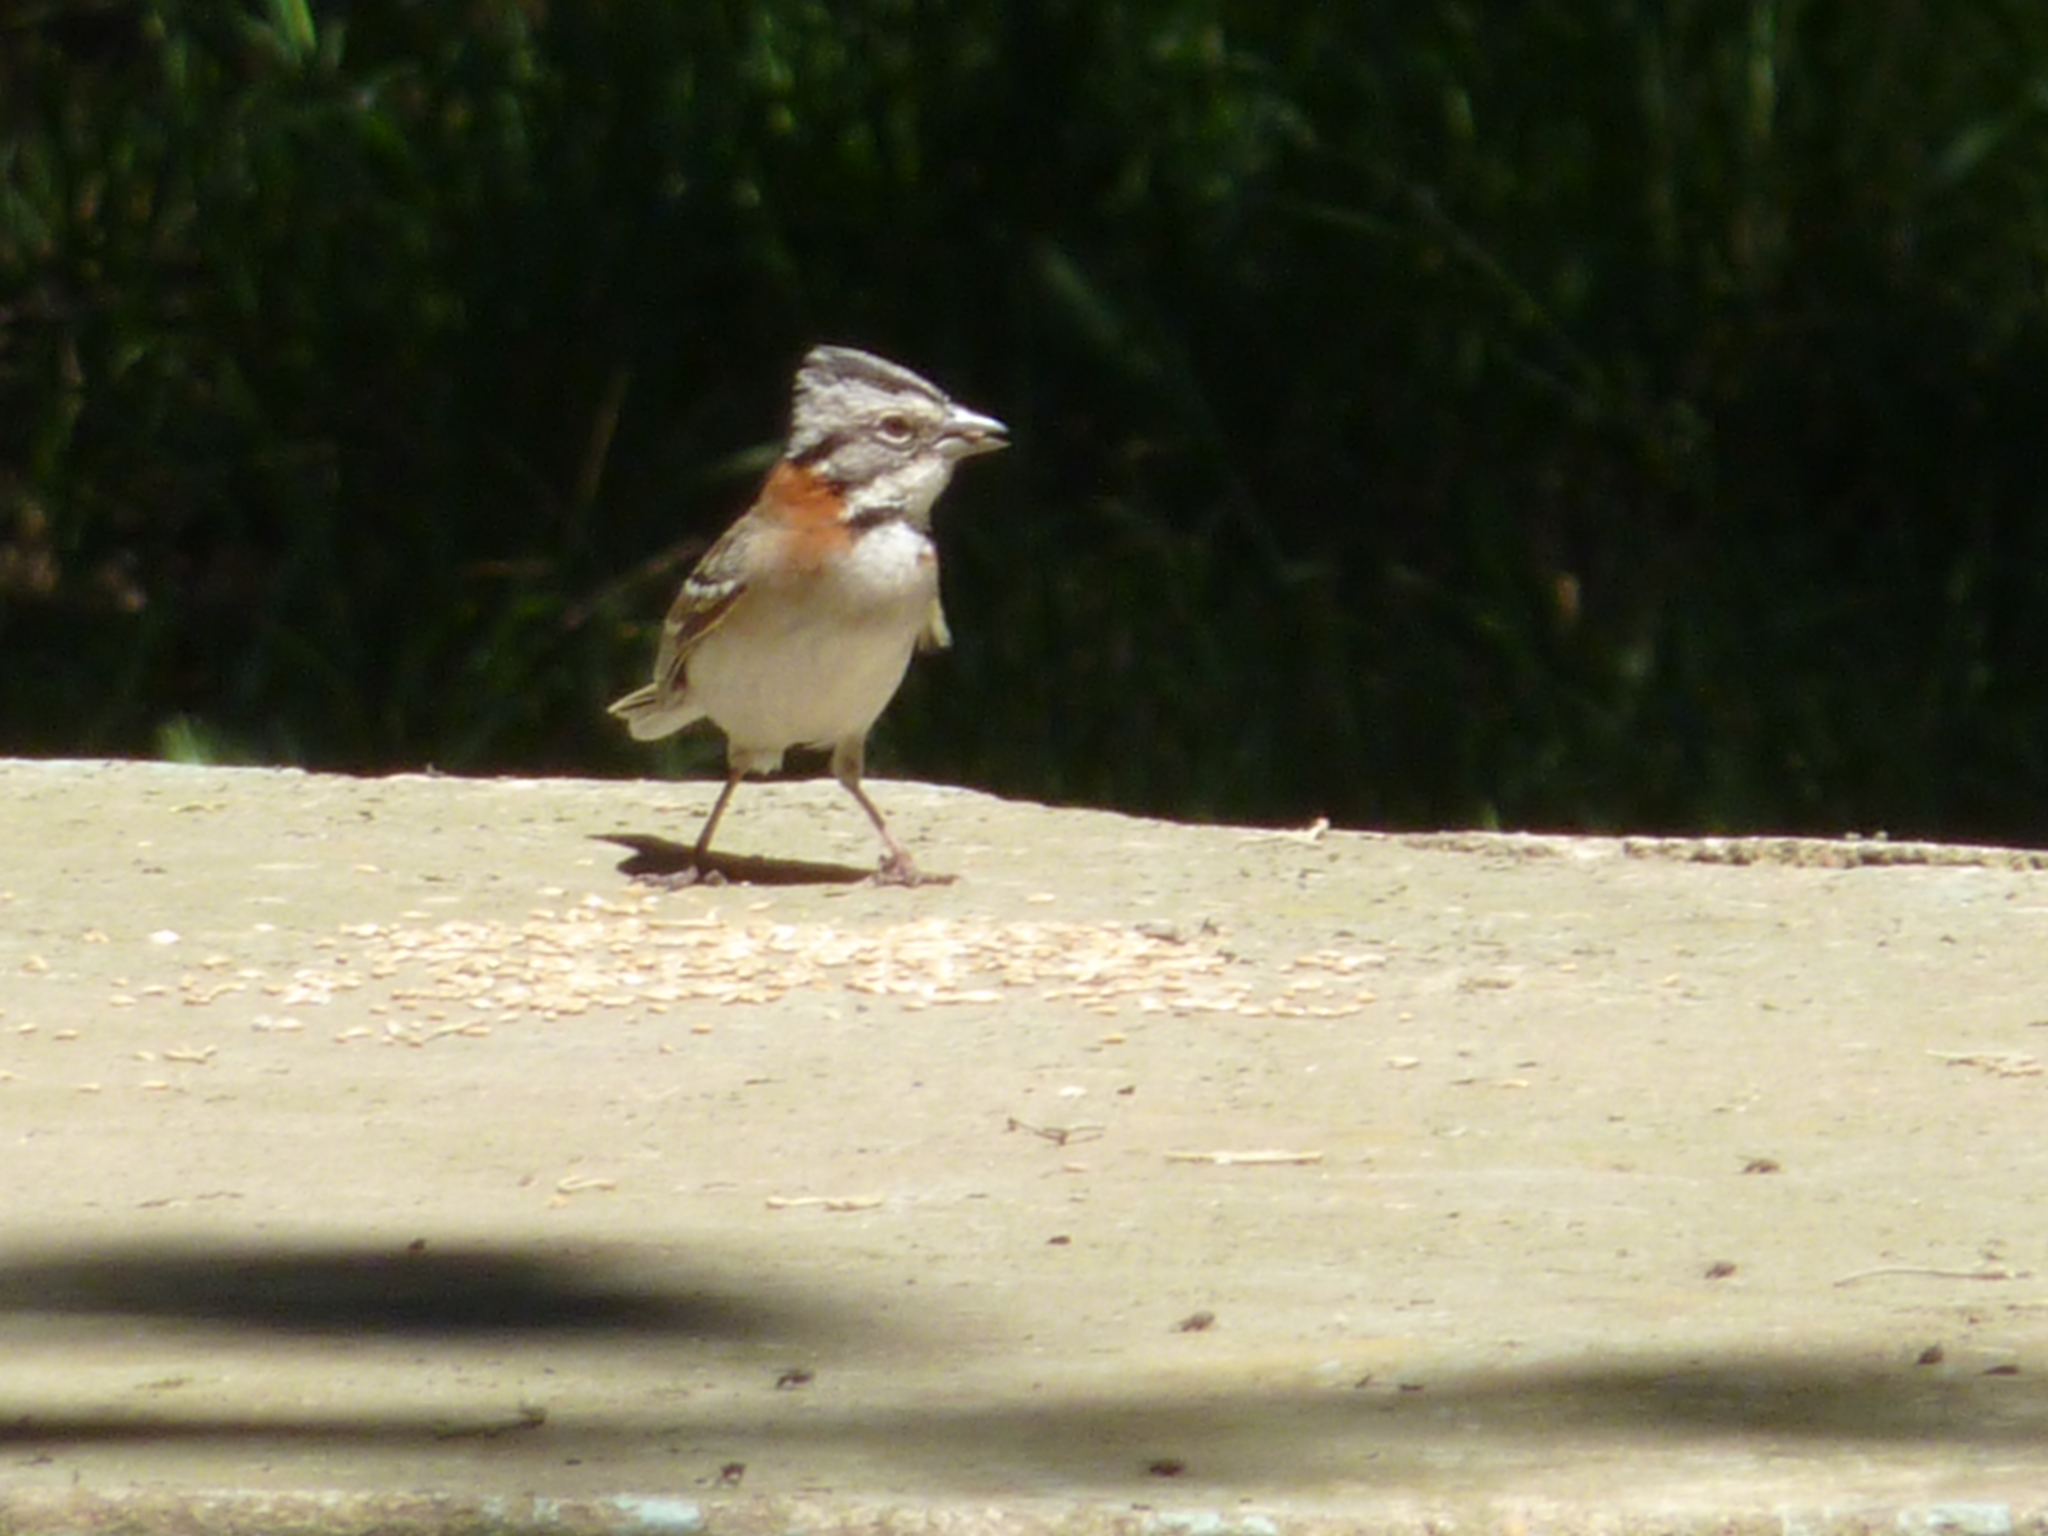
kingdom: Animalia
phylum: Chordata
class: Aves
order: Passeriformes
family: Passerellidae
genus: Zonotrichia
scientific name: Zonotrichia capensis
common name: Rufous-collared sparrow
